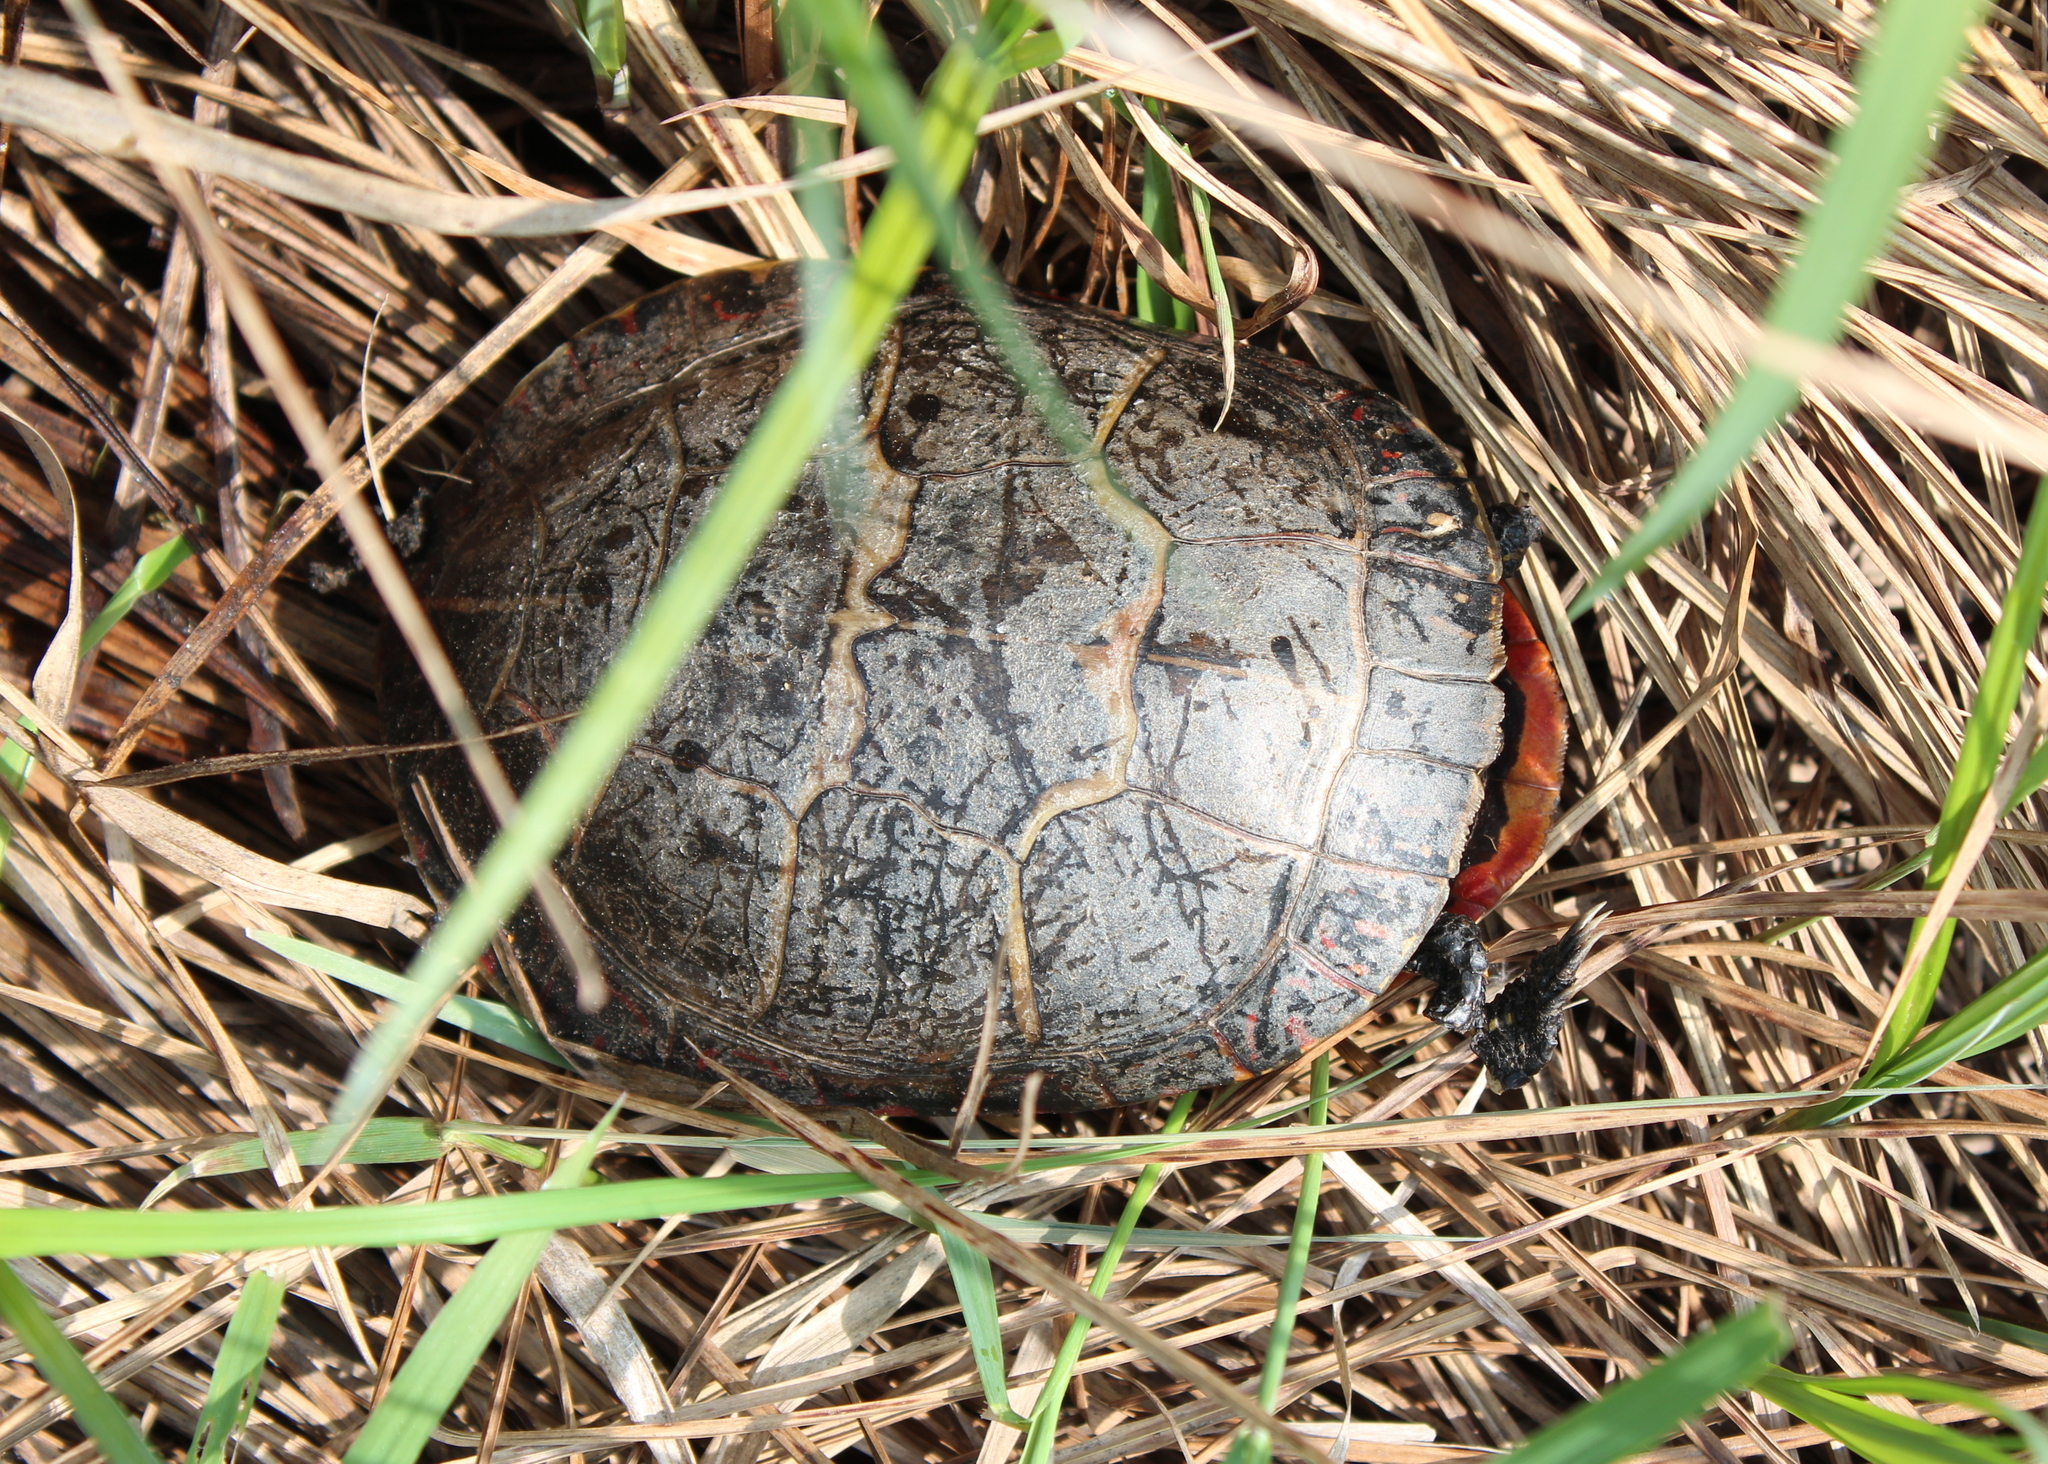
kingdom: Animalia
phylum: Chordata
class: Testudines
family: Emydidae
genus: Chrysemys
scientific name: Chrysemys picta
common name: Painted turtle
